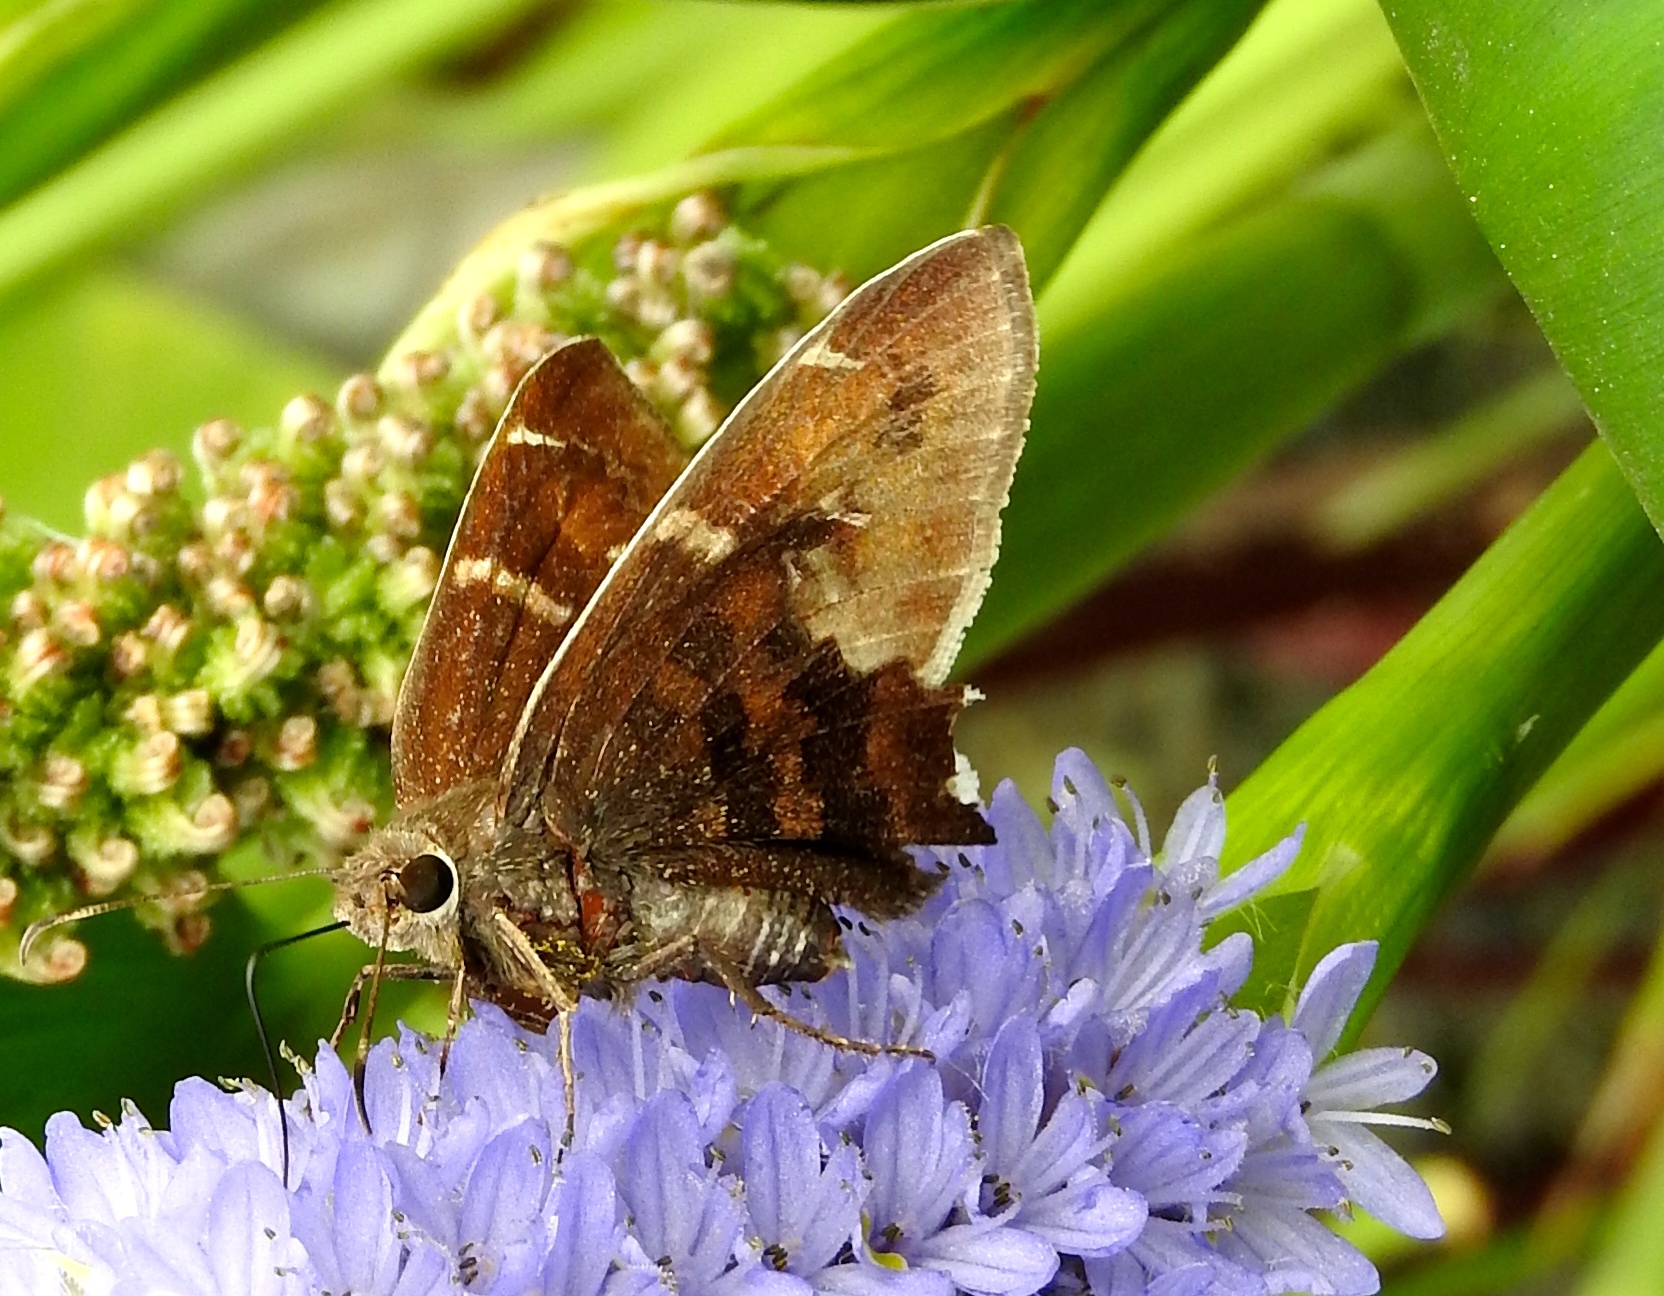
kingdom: Animalia
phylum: Arthropoda
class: Insecta
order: Lepidoptera
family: Hesperiidae
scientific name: Hesperiidae
